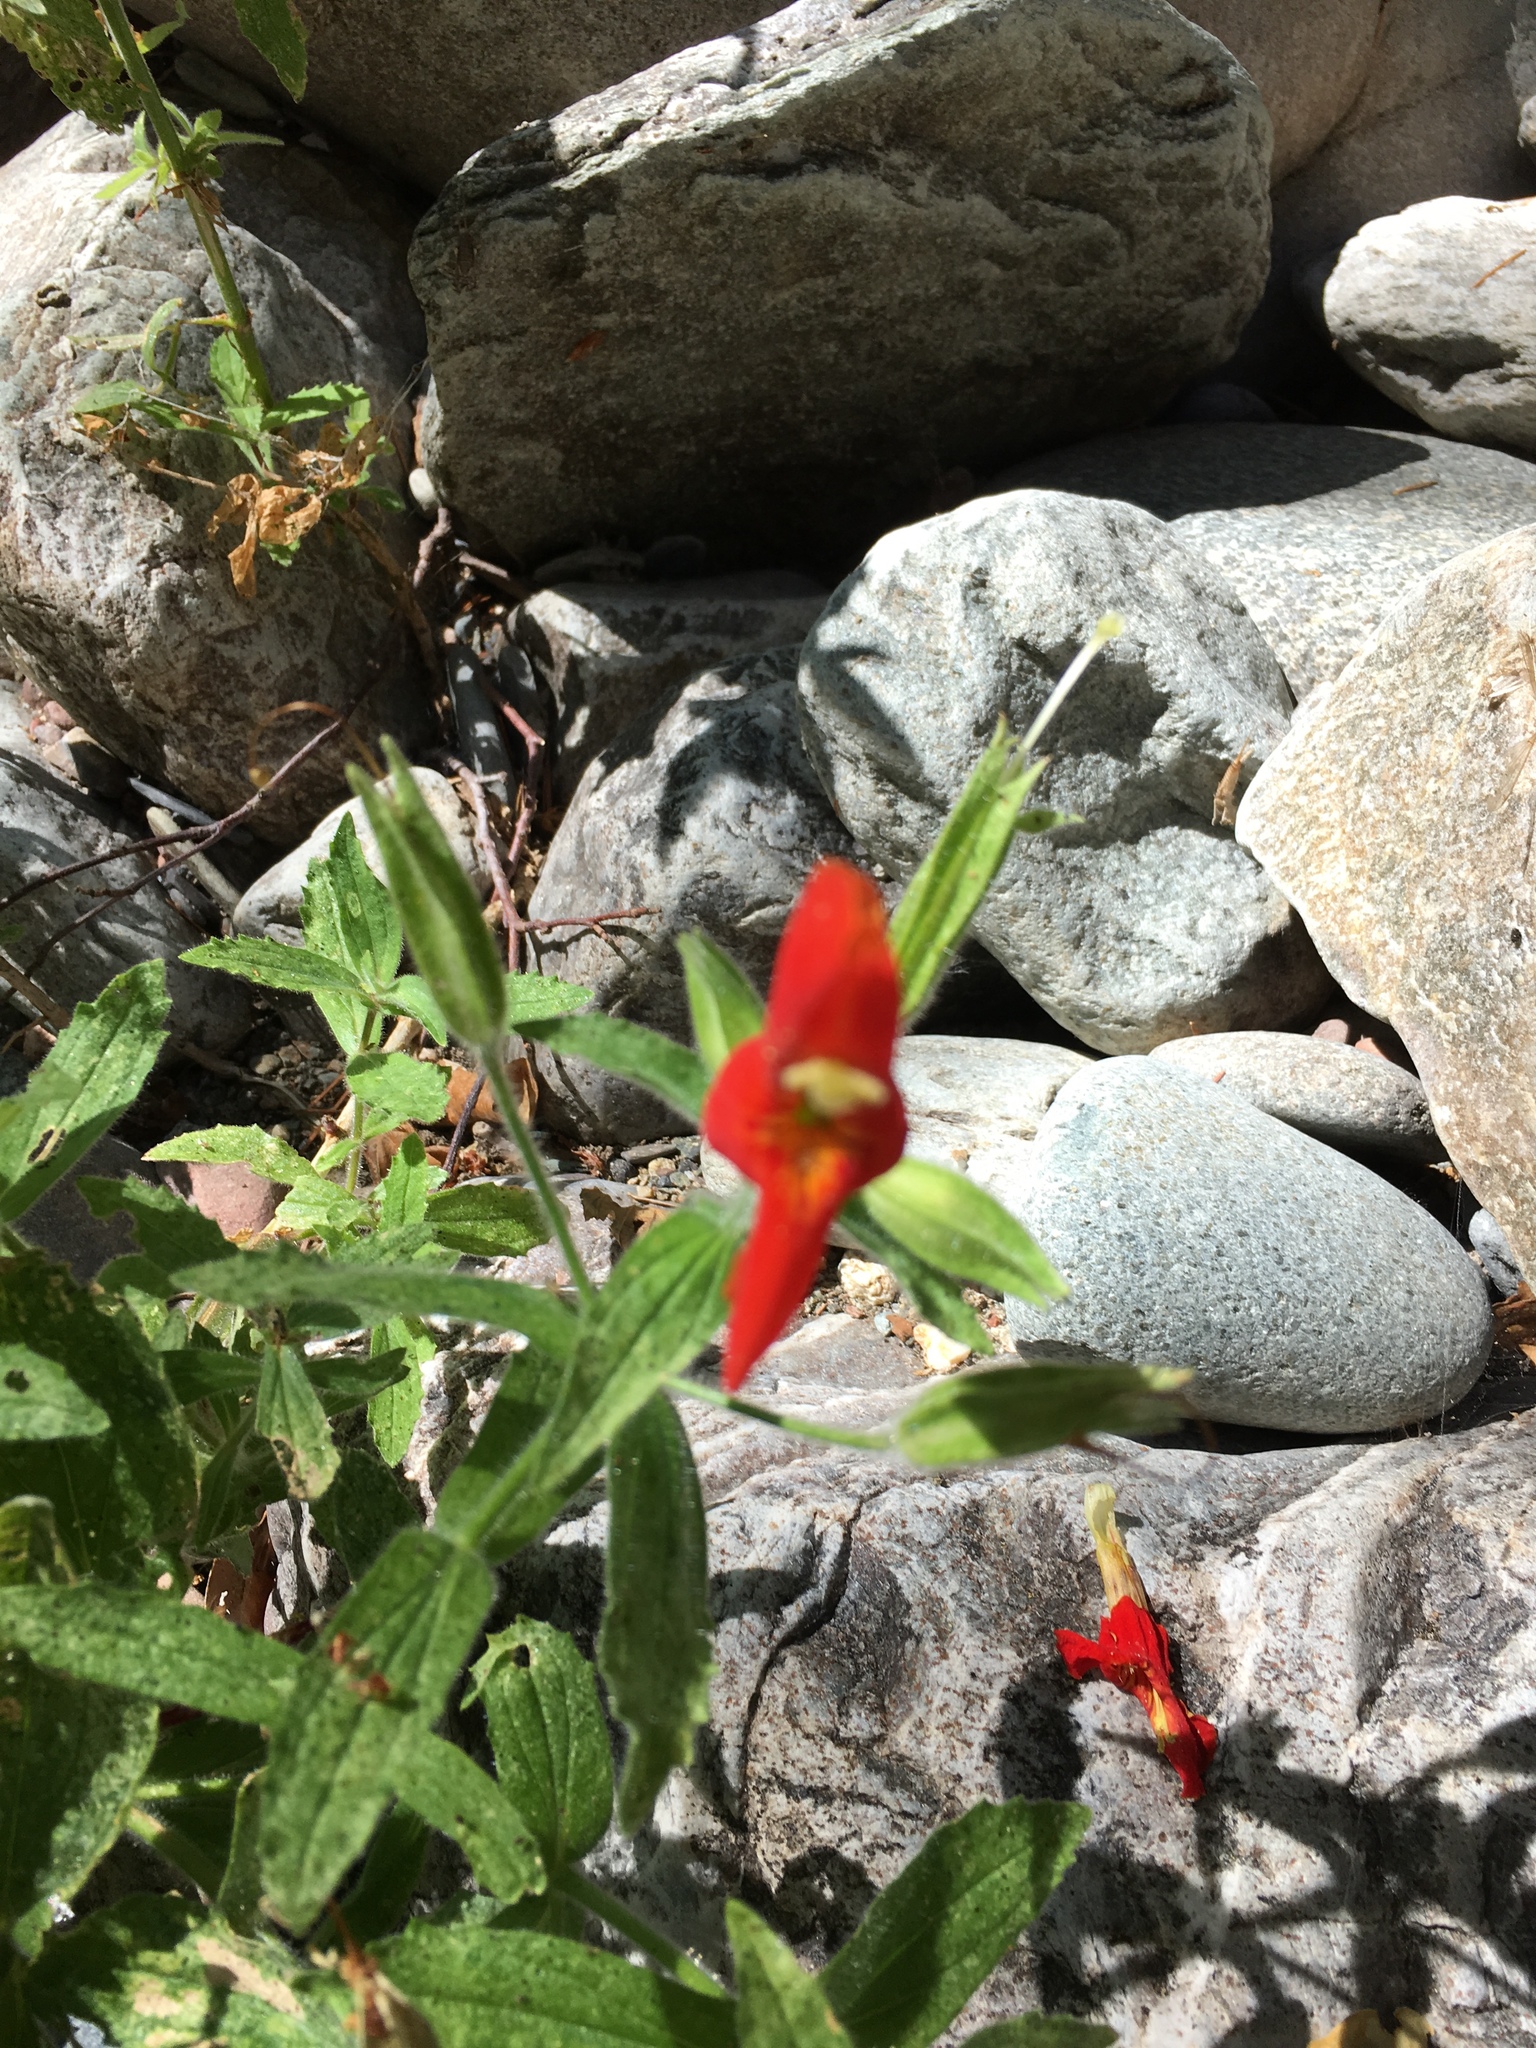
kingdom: Plantae
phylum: Tracheophyta
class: Magnoliopsida
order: Lamiales
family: Phrymaceae
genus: Erythranthe
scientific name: Erythranthe cardinalis
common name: Scarlet monkey-flower
